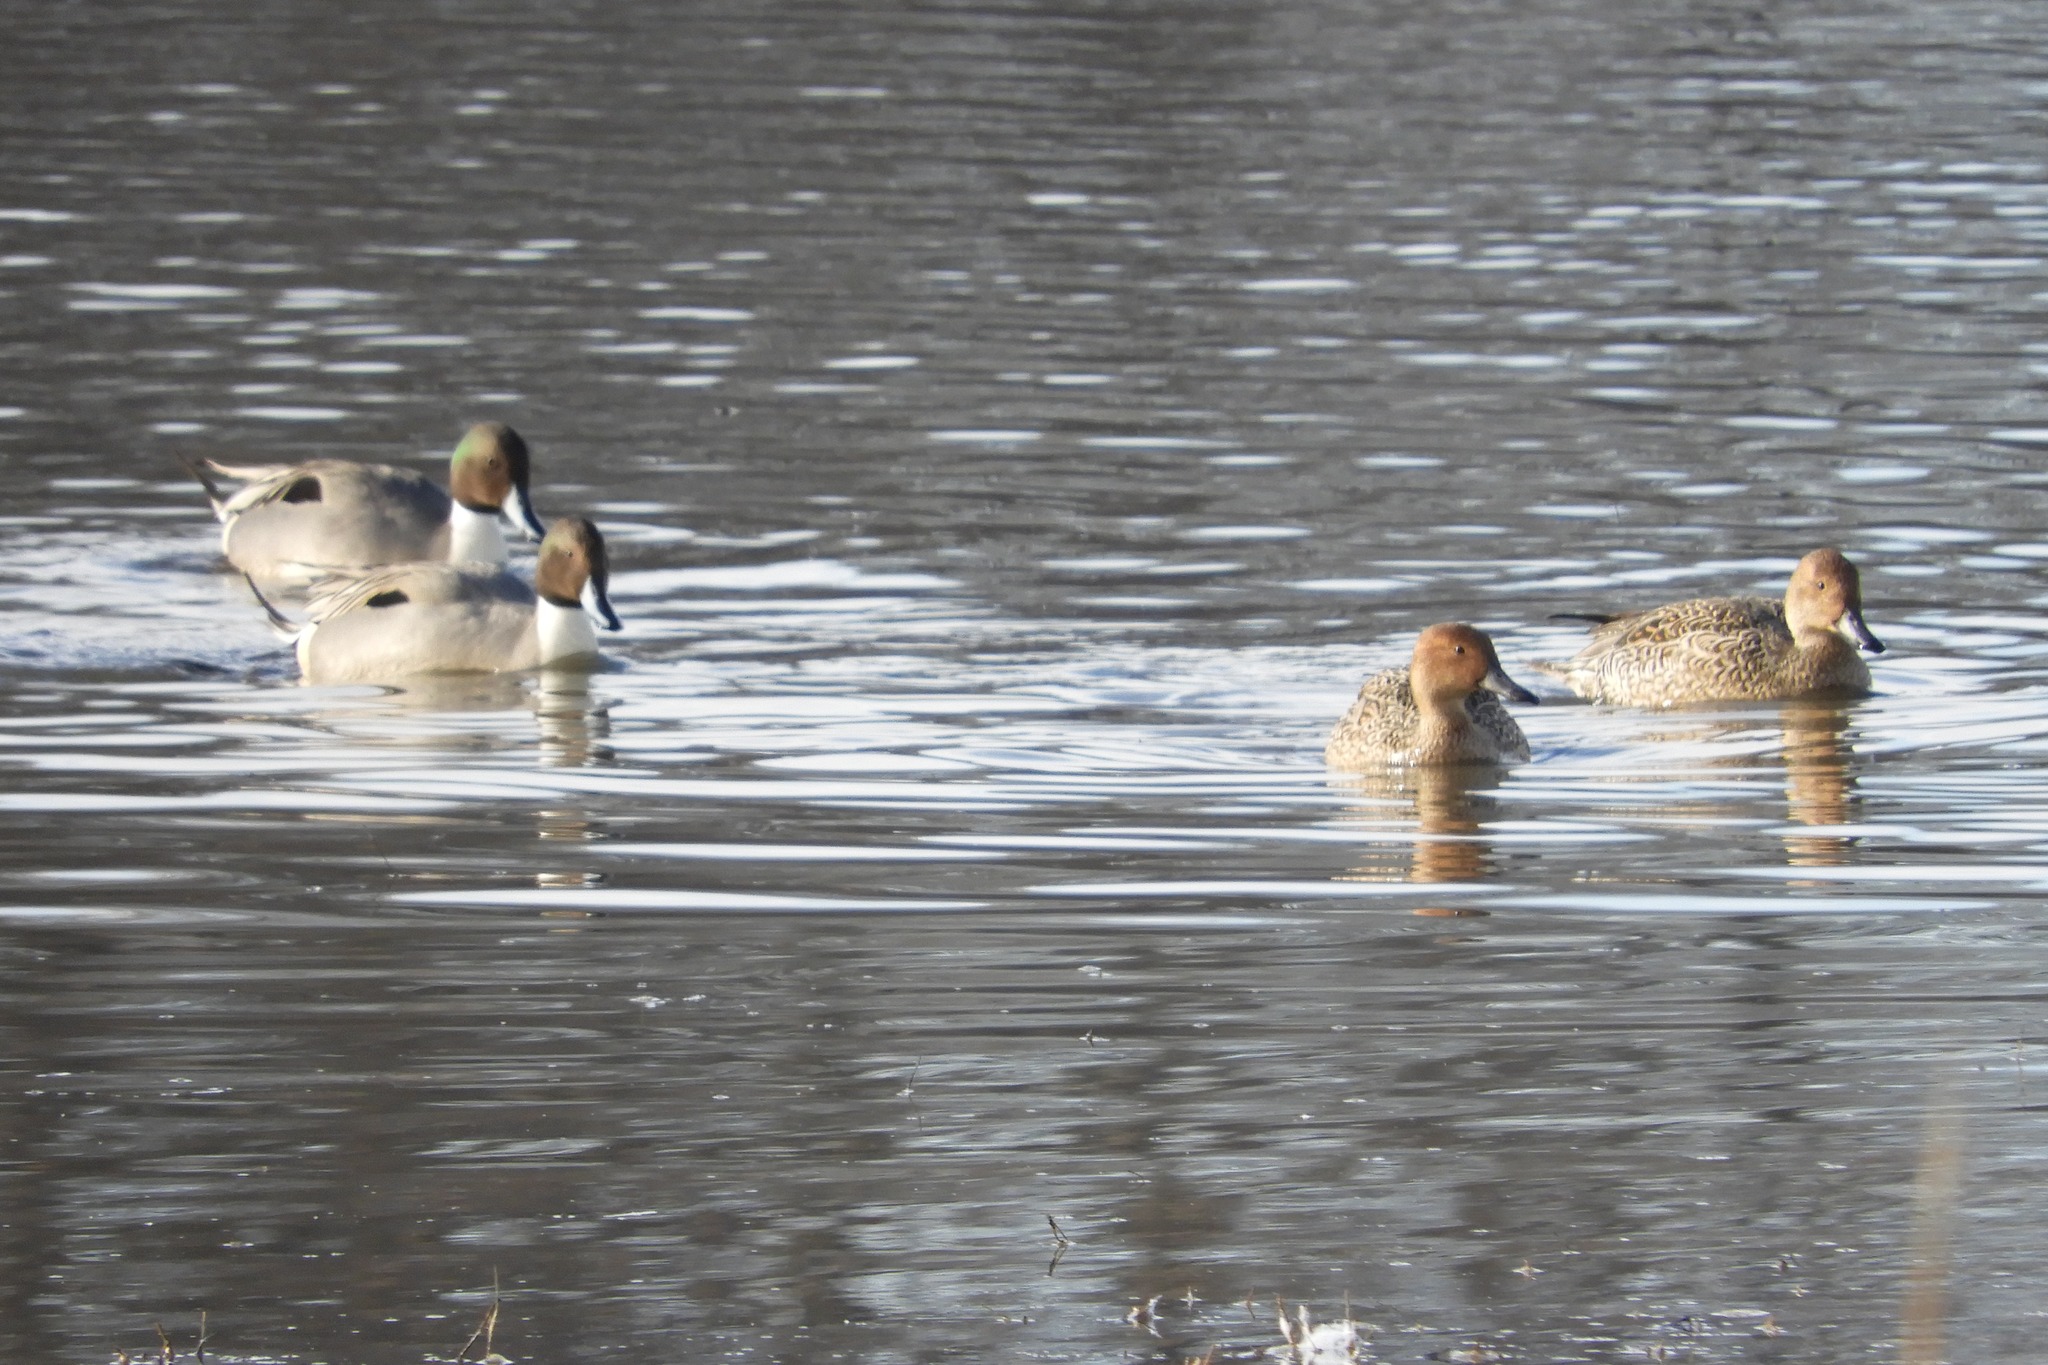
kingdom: Animalia
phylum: Chordata
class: Aves
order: Anseriformes
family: Anatidae
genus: Anas
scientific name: Anas acuta
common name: Northern pintail
